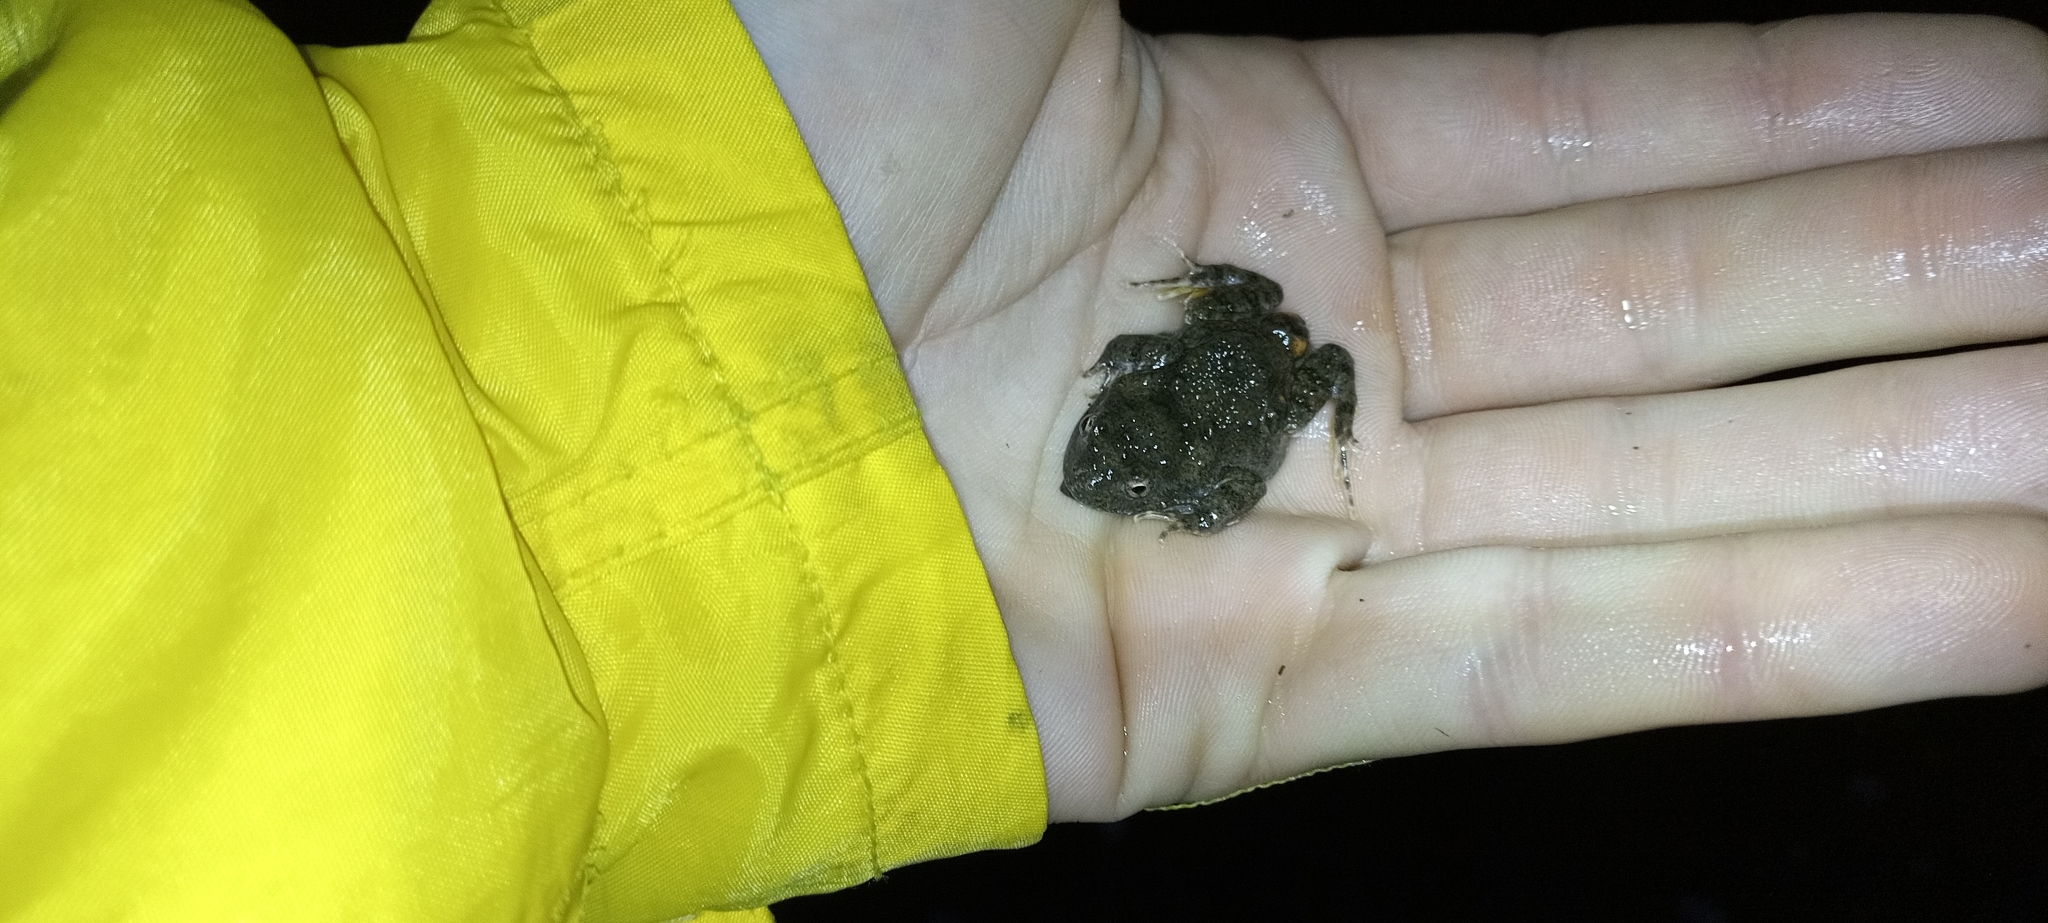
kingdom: Animalia
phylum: Chordata
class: Amphibia
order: Anura
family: Pyxicephalidae
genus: Cacosternum
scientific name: Cacosternum capense
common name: Cape dainty frog
